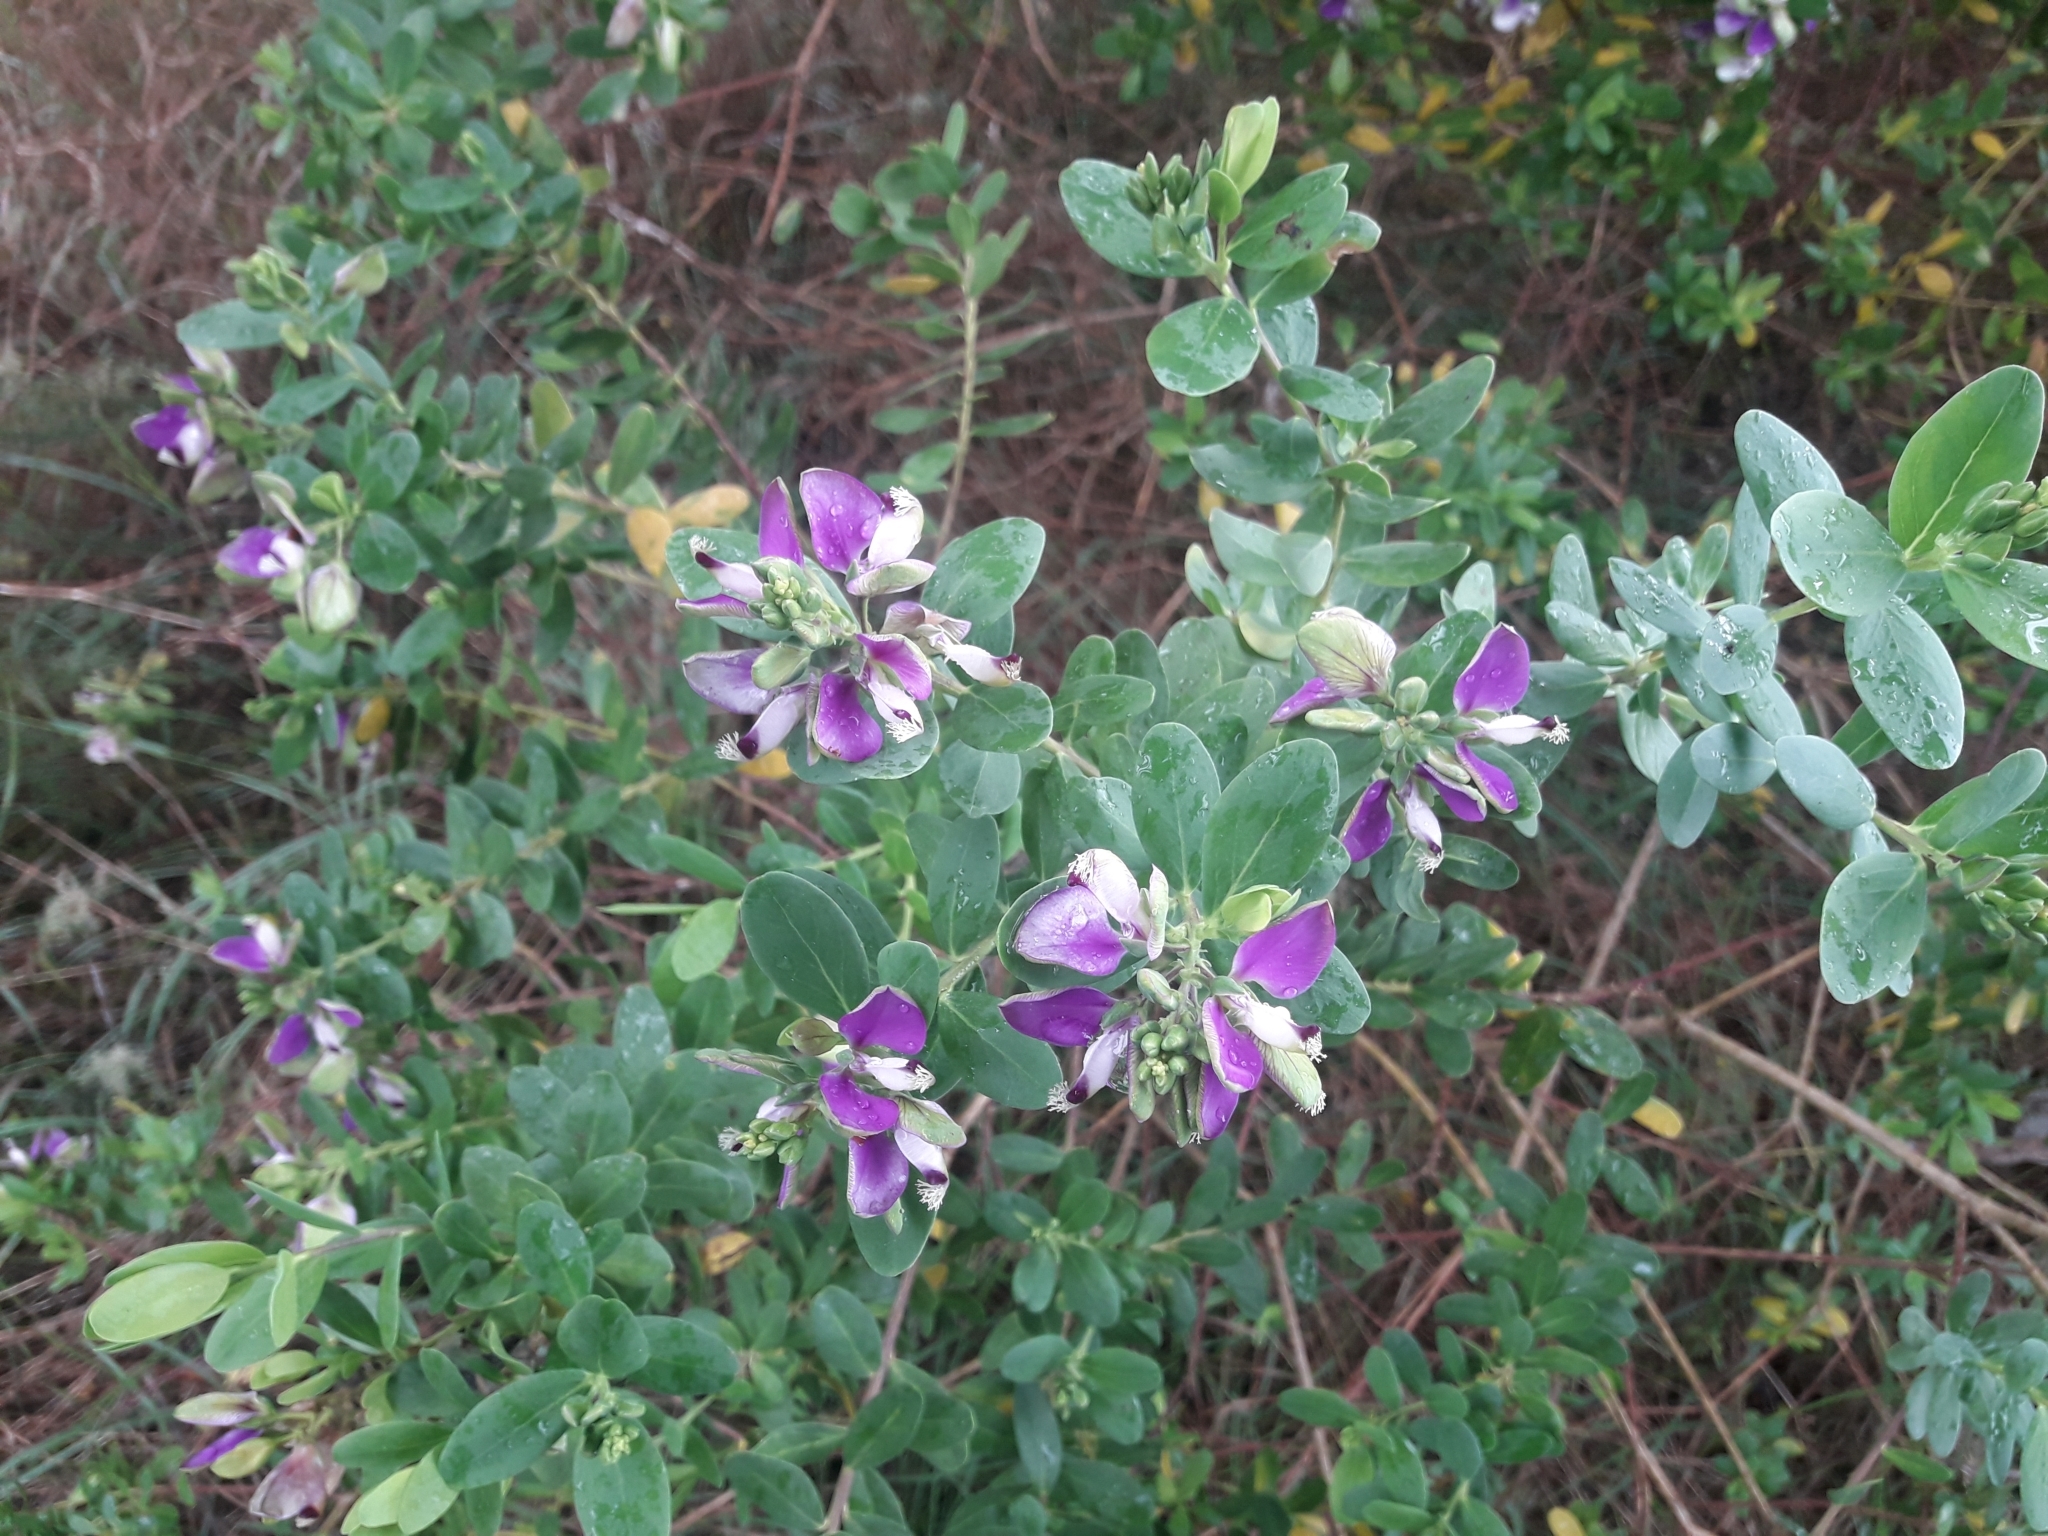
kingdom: Plantae
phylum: Tracheophyta
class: Magnoliopsida
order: Fabales
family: Polygalaceae
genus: Polygala
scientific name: Polygala myrtifolia
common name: Myrtle-leaf milkwort
